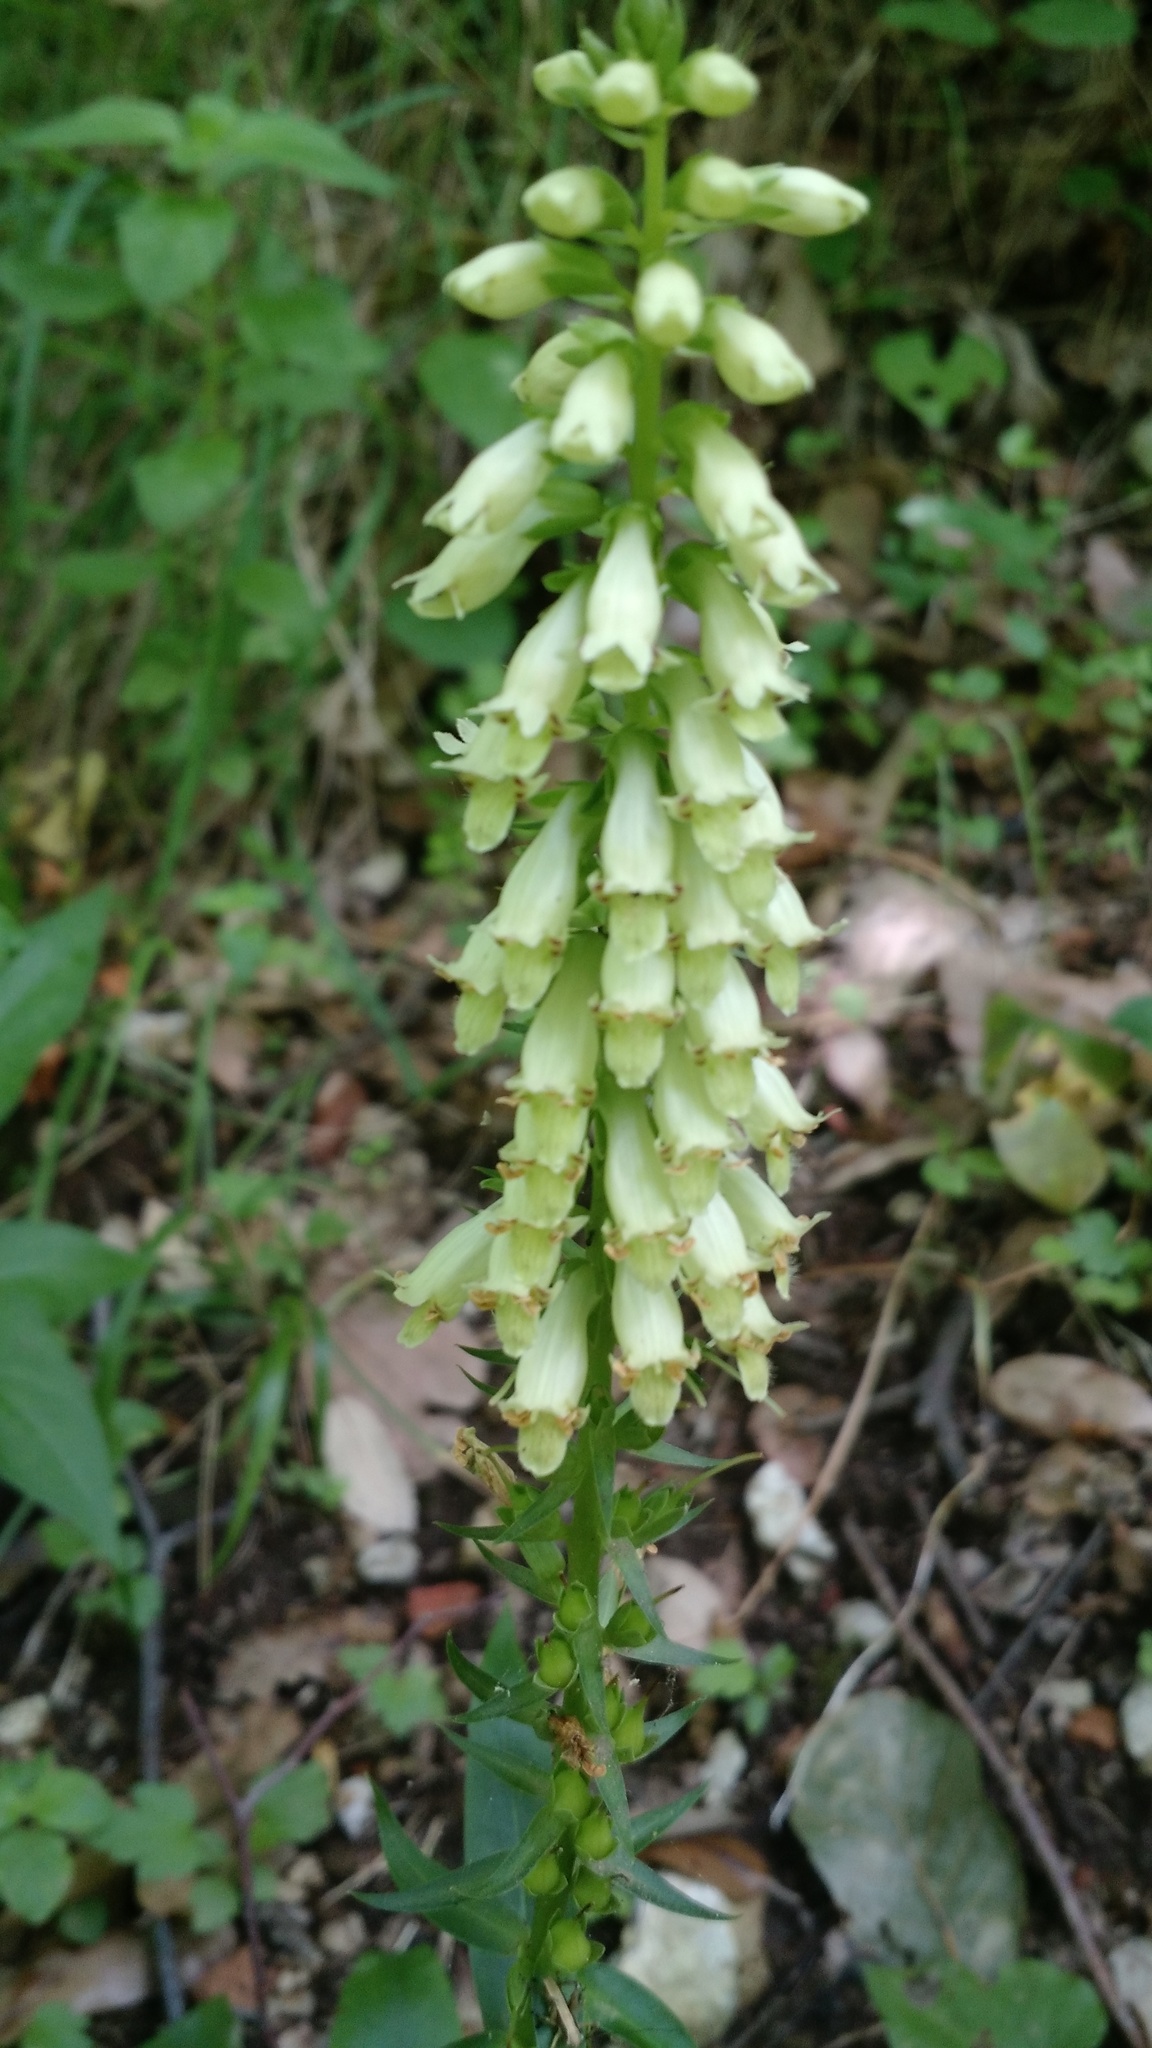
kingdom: Plantae
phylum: Tracheophyta
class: Magnoliopsida
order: Lamiales
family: Plantaginaceae
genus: Digitalis
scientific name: Digitalis lutea
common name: Straw foxglove
